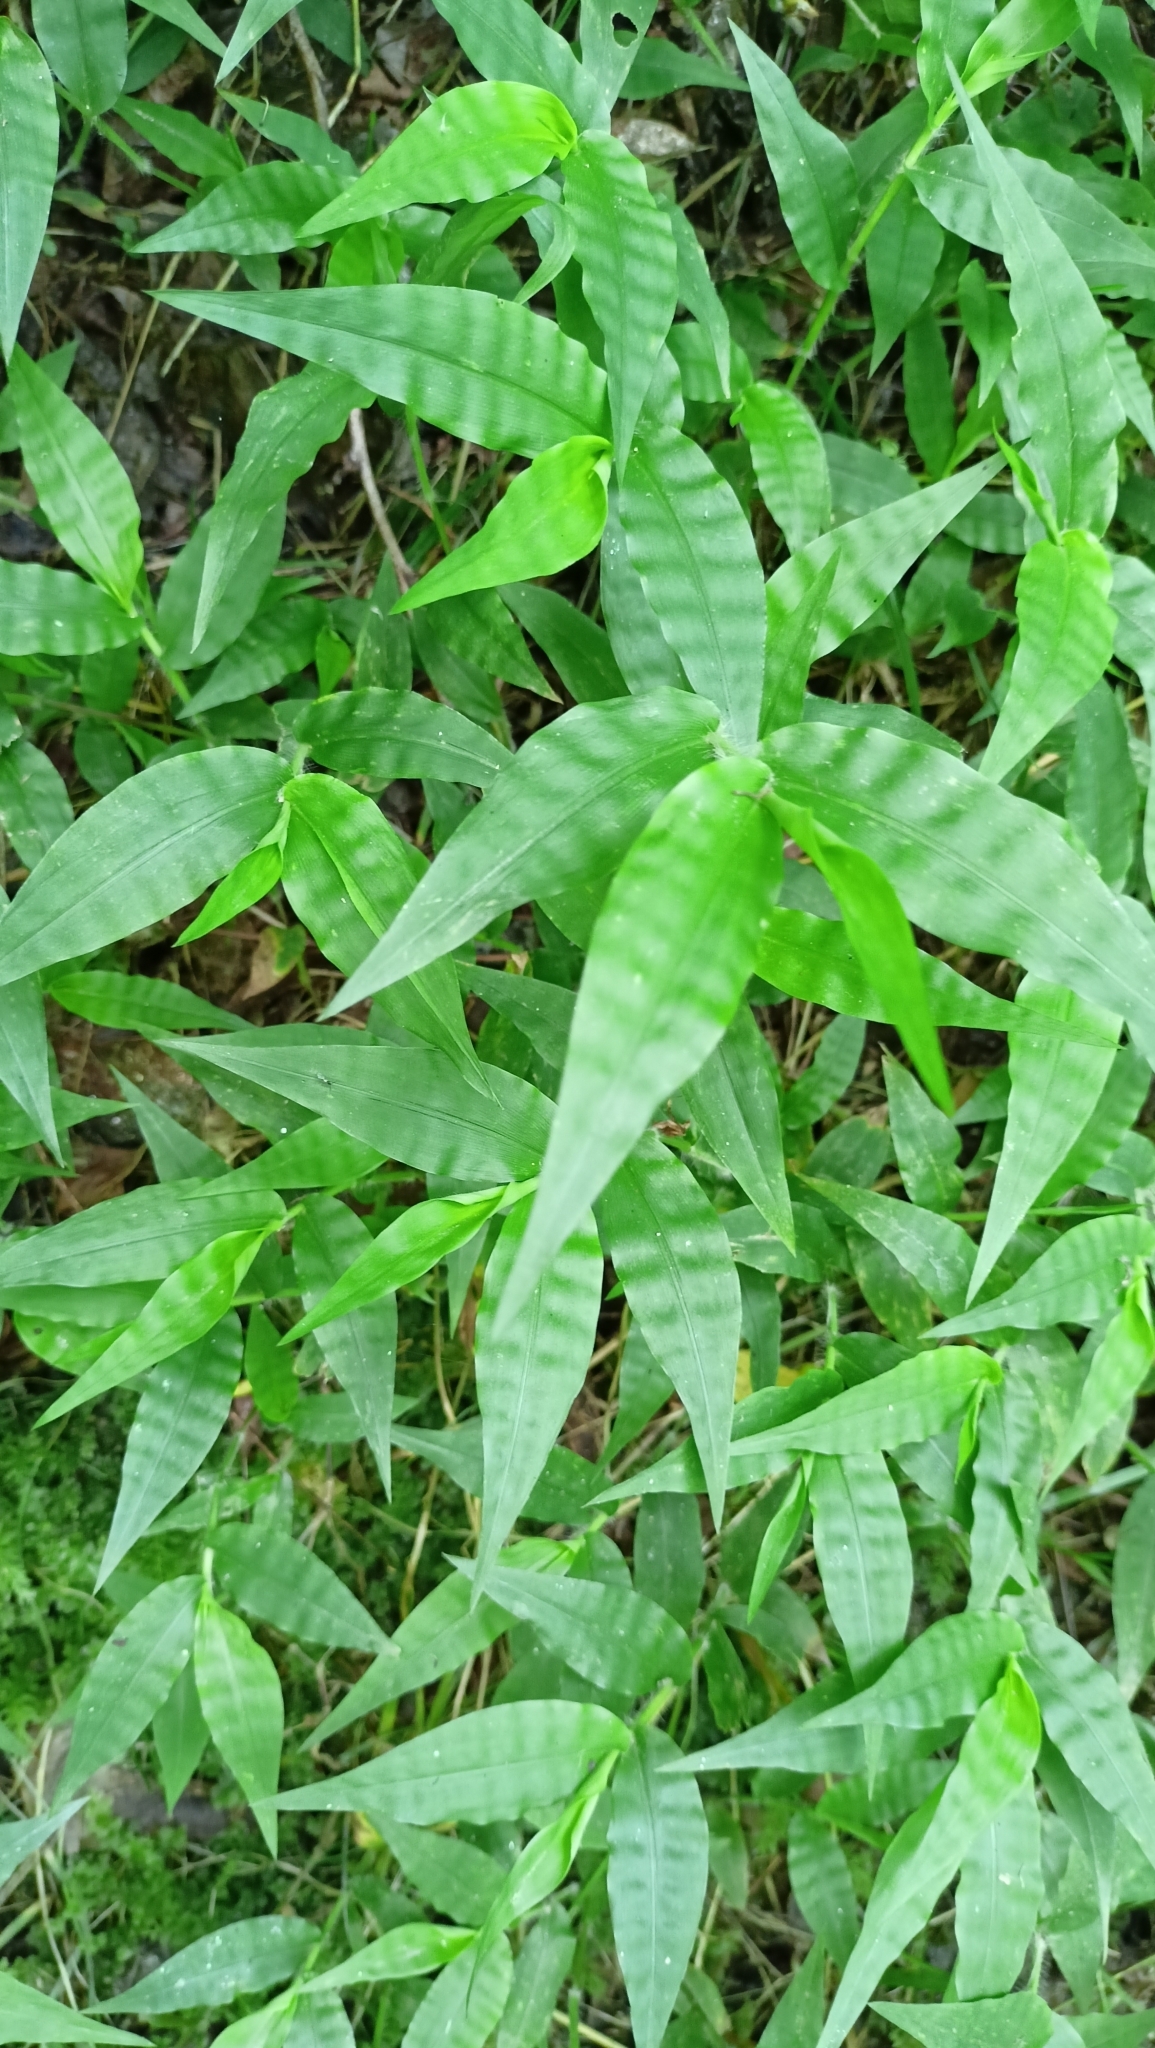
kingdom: Plantae
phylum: Tracheophyta
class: Liliopsida
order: Poales
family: Poaceae
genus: Oplismenus
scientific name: Oplismenus undulatifolius
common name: Wavyleaf basketgrass
